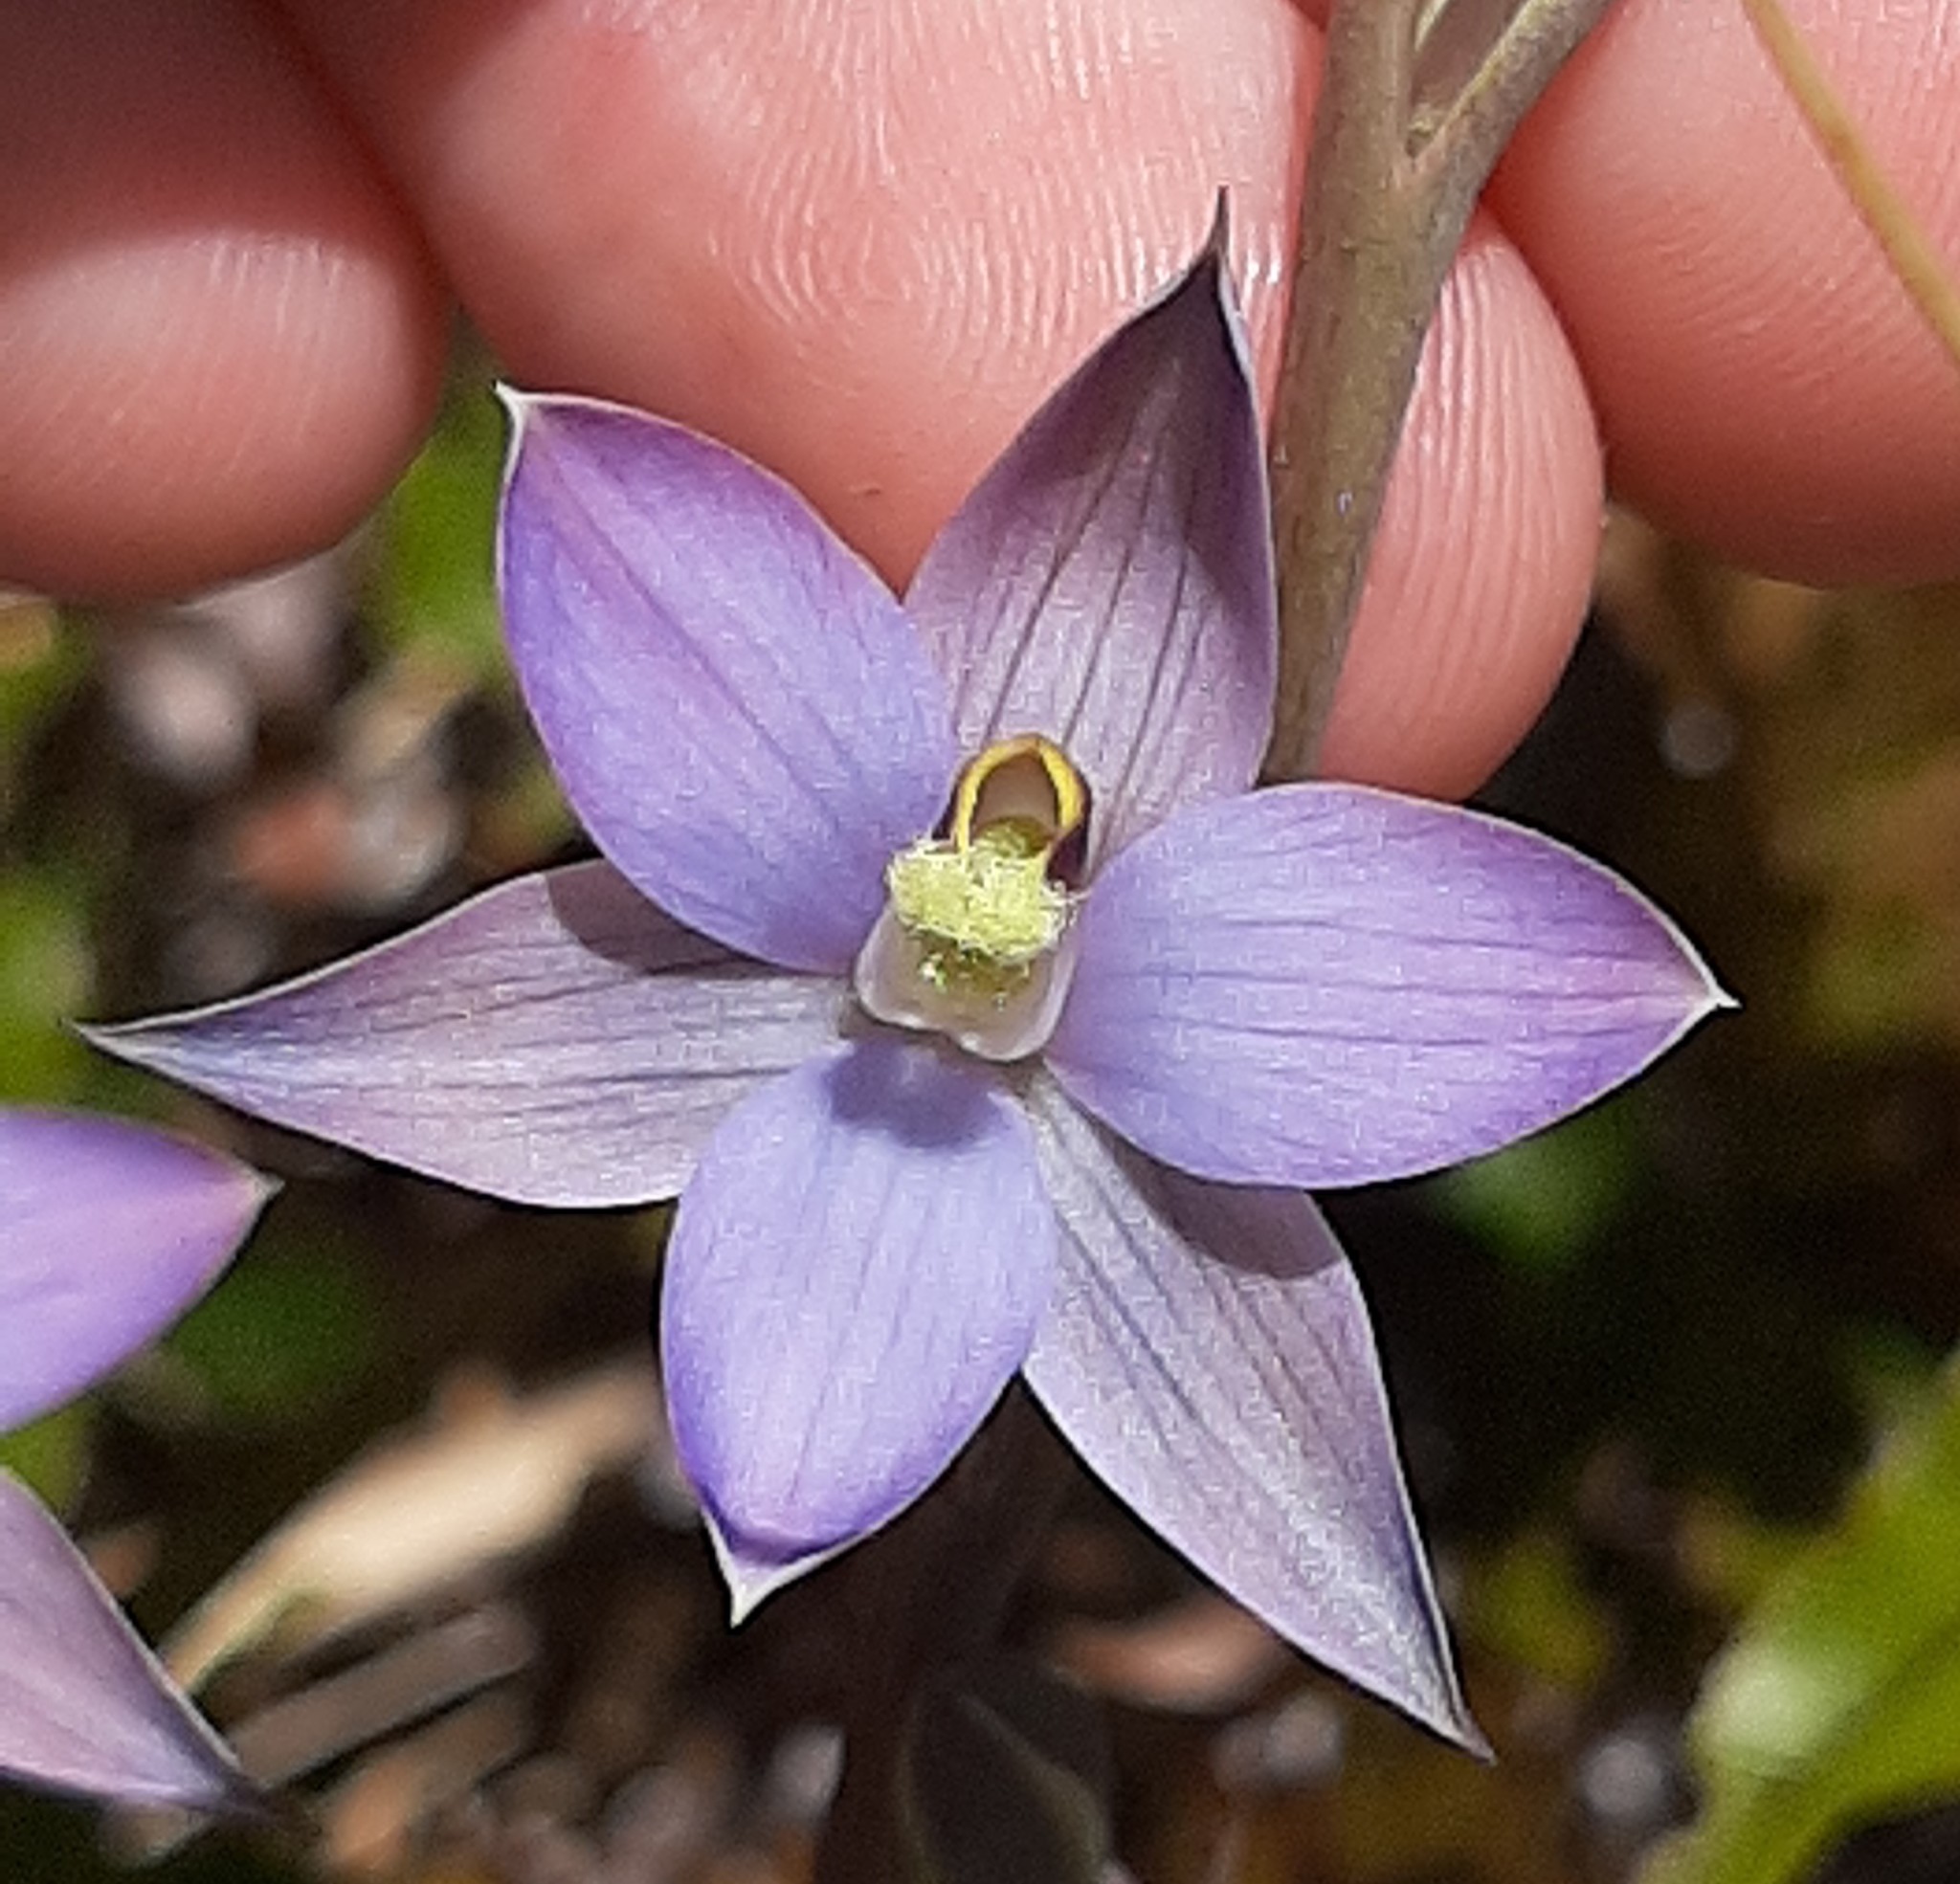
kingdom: Plantae
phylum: Tracheophyta
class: Liliopsida
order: Asparagales
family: Orchidaceae
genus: Thelymitra
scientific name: Thelymitra hatchii
